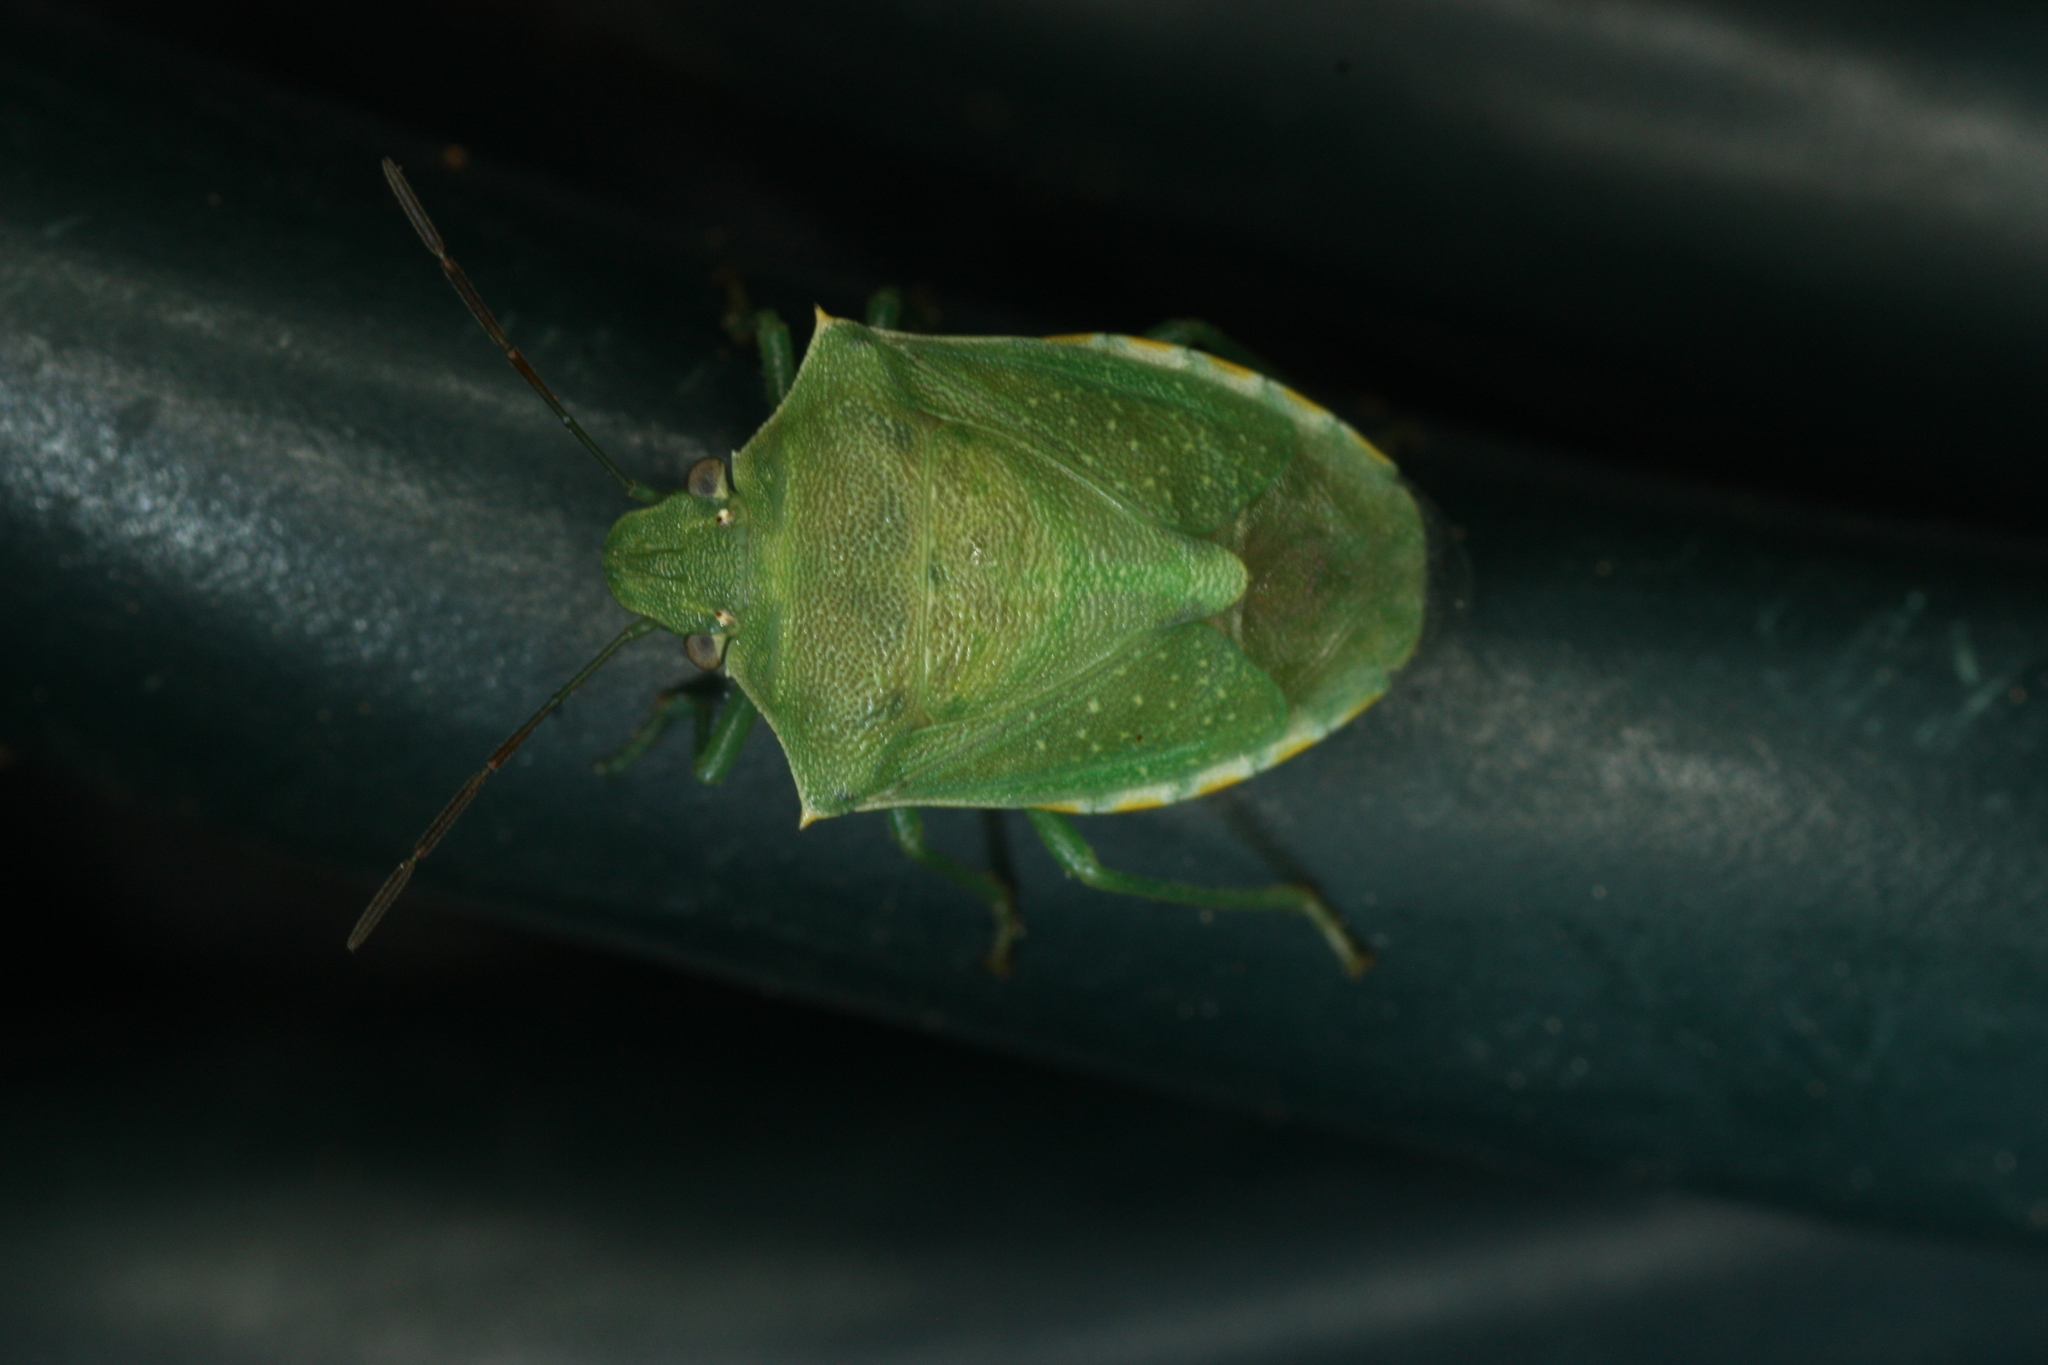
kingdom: Animalia
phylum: Arthropoda
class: Insecta
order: Hemiptera
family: Pentatomidae
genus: Thyanta
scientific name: Thyanta accerra
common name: Stink bug
